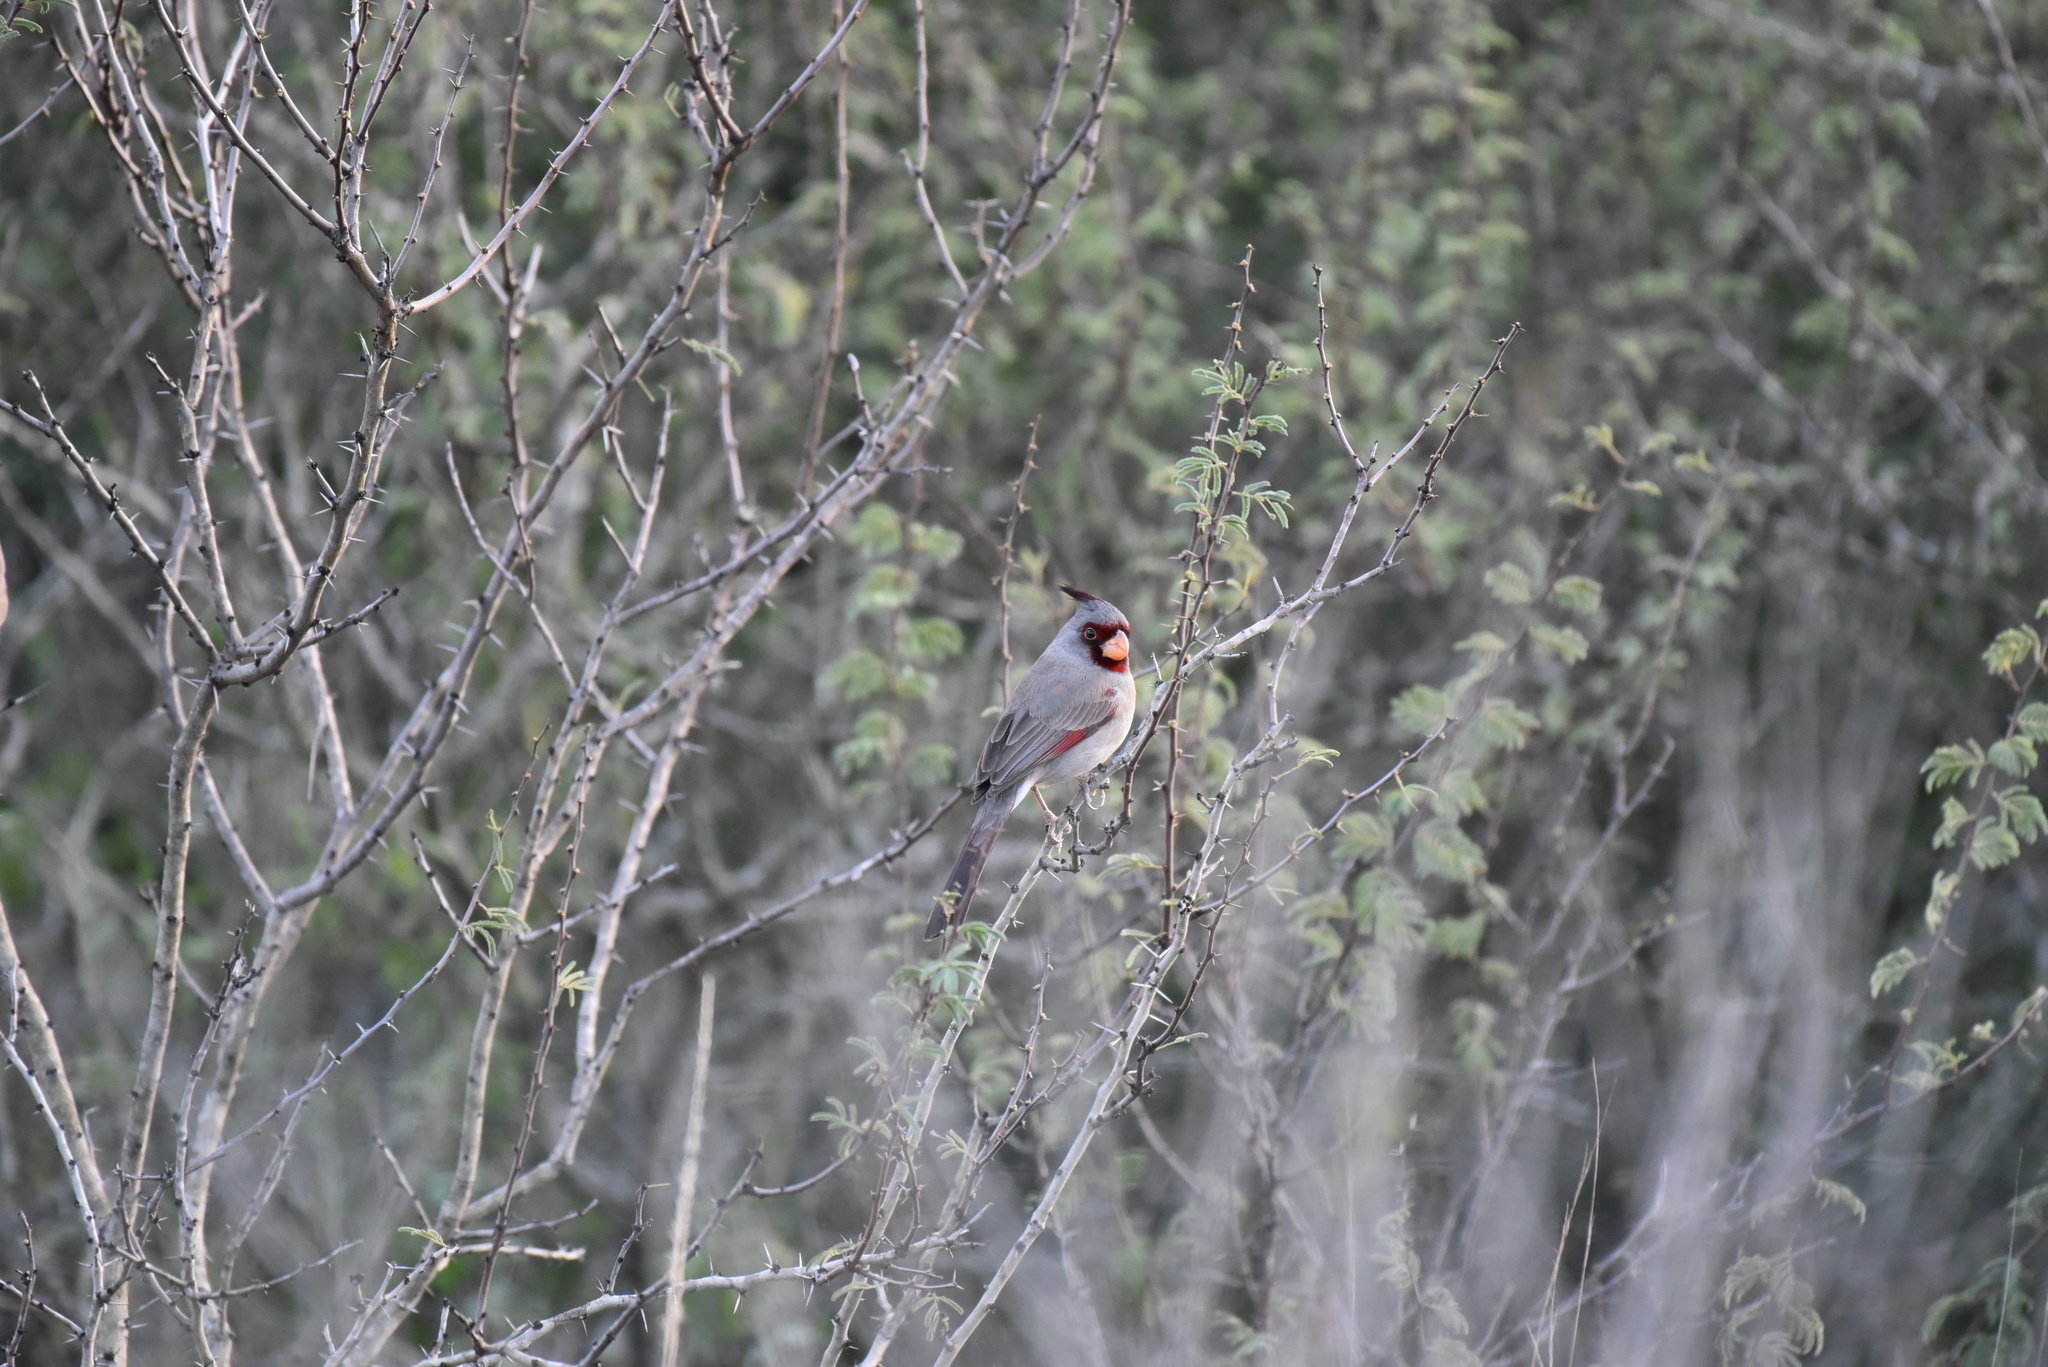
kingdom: Animalia
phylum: Chordata
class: Aves
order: Passeriformes
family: Cardinalidae
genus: Cardinalis
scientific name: Cardinalis sinuatus
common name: Pyrrhuloxia
